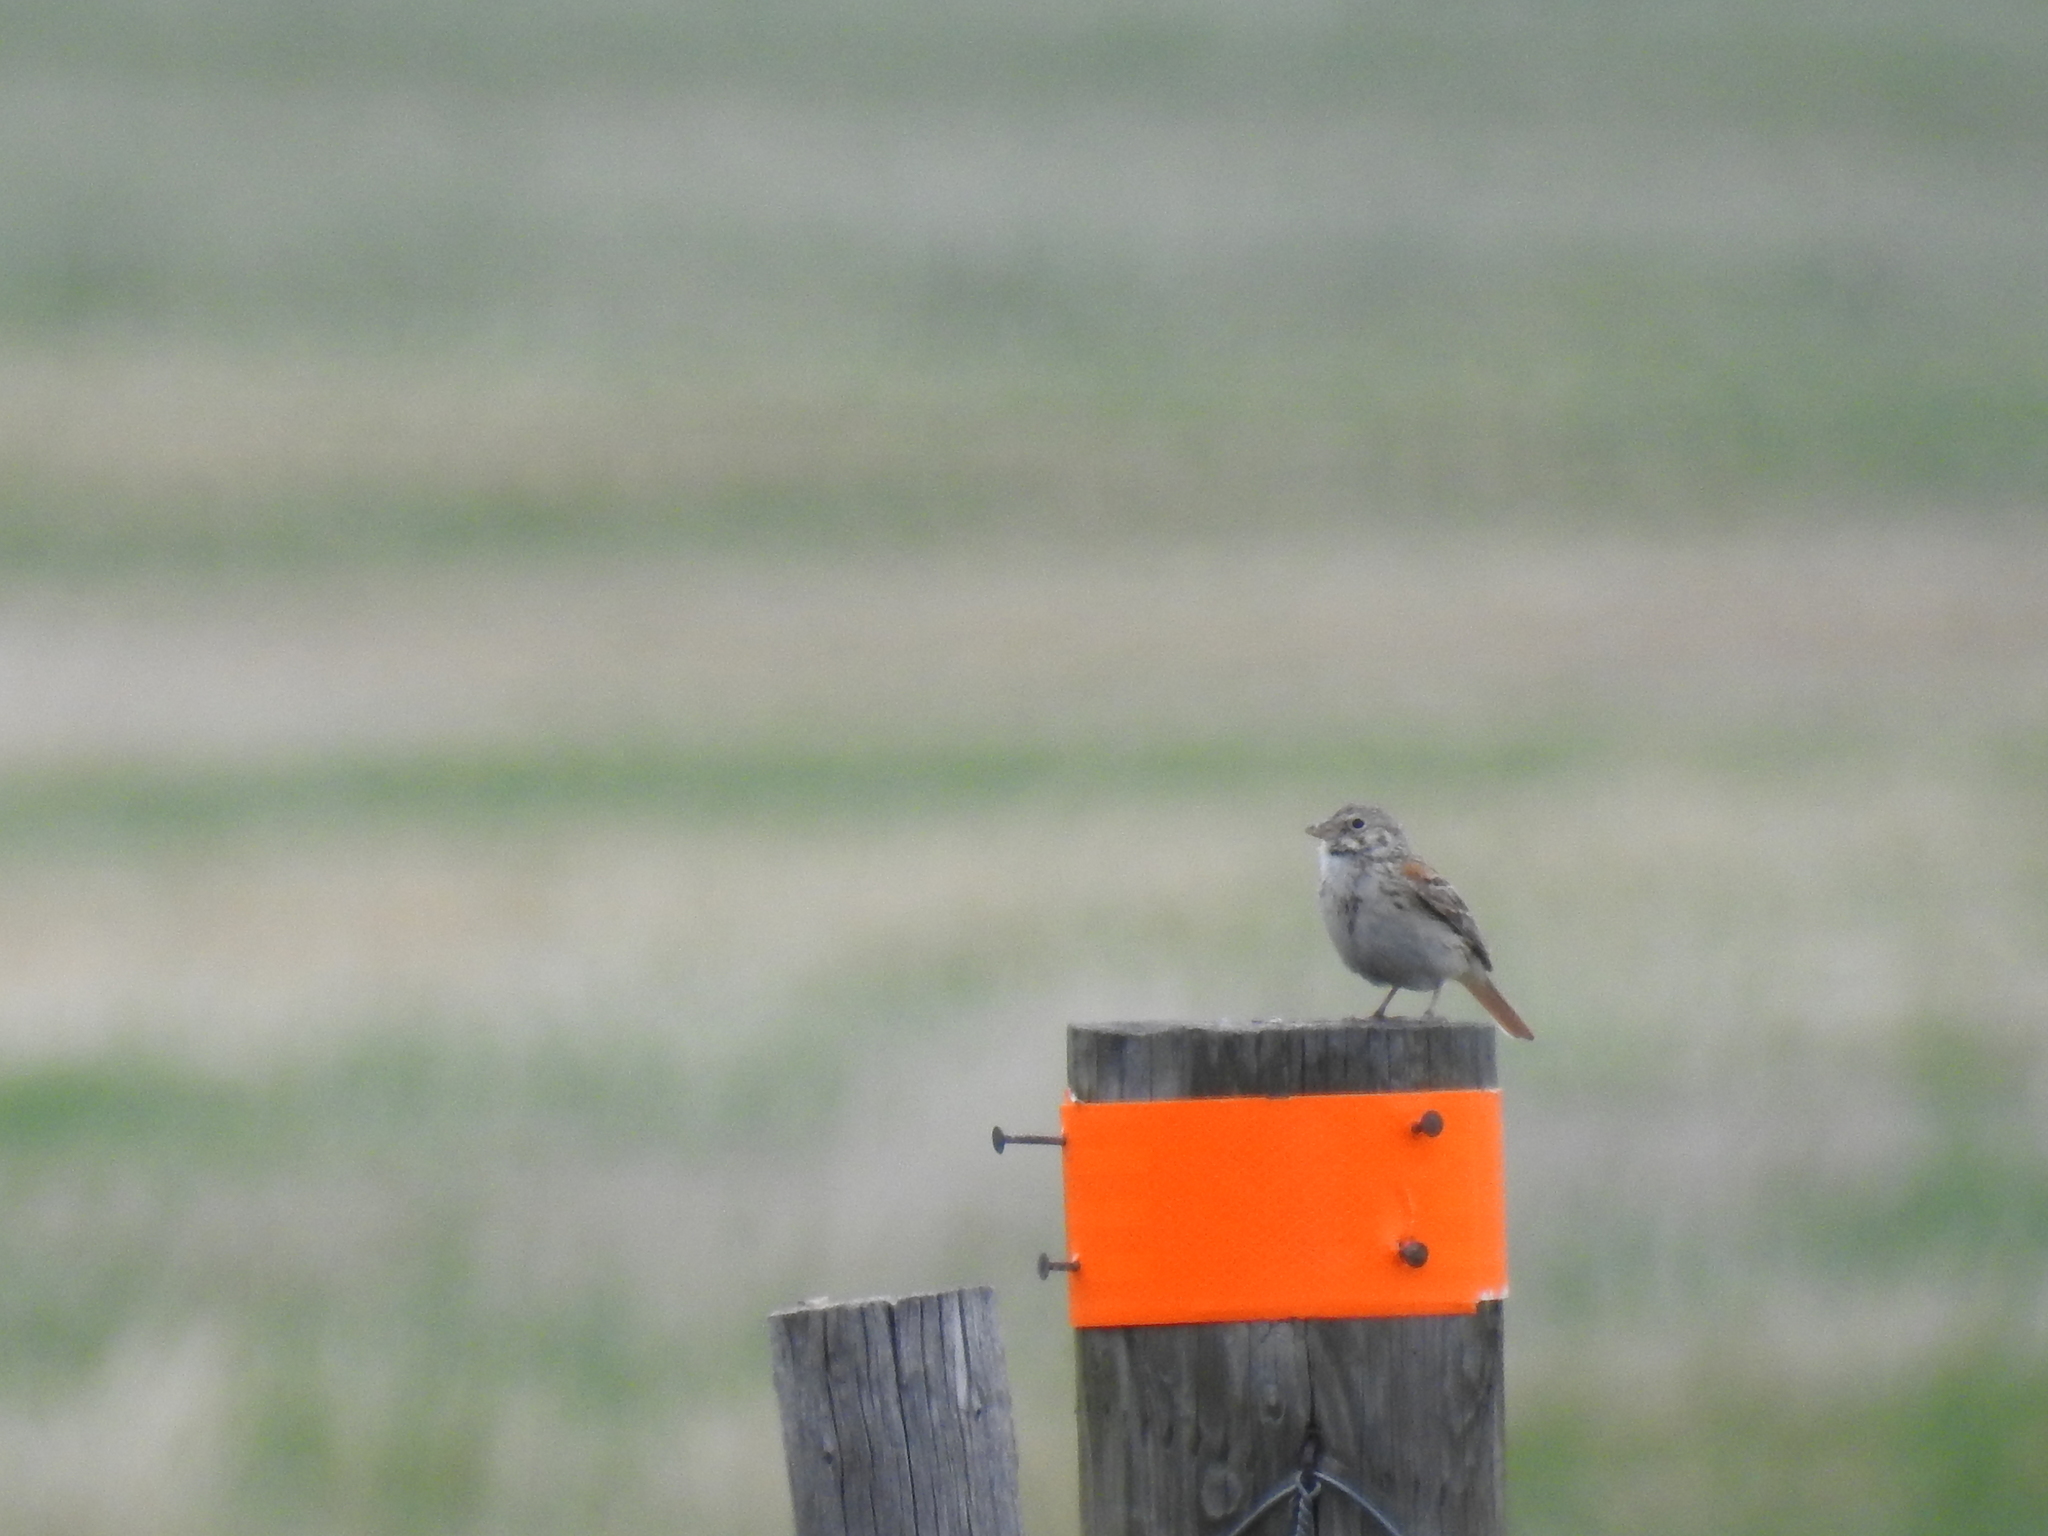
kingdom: Animalia
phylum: Chordata
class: Aves
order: Passeriformes
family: Passerellidae
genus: Pooecetes
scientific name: Pooecetes gramineus
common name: Vesper sparrow
